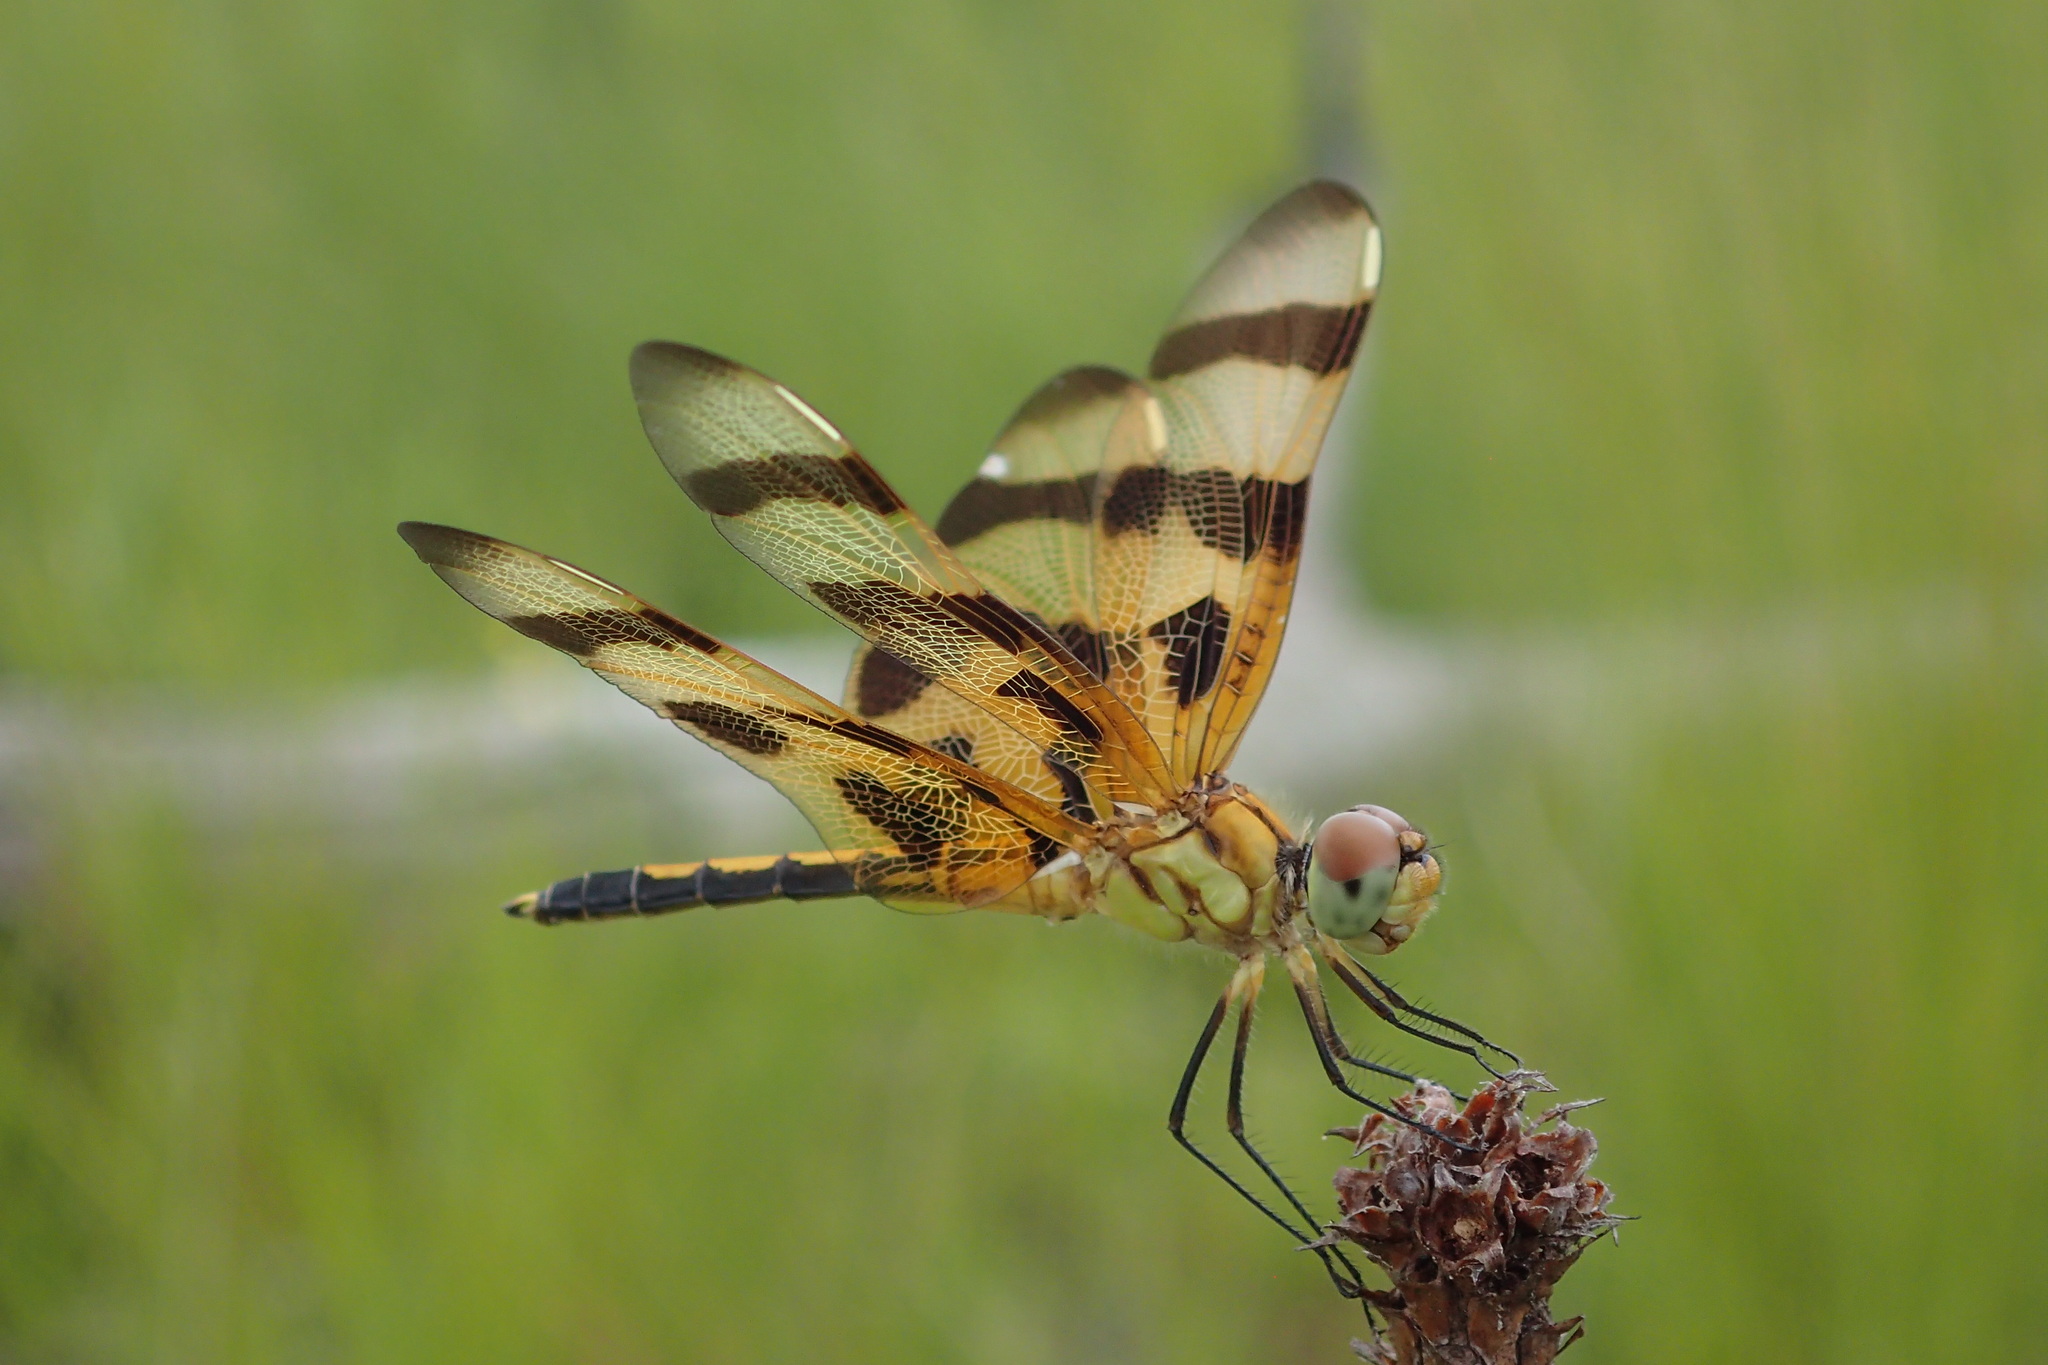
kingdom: Animalia
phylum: Arthropoda
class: Insecta
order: Odonata
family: Libellulidae
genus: Celithemis
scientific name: Celithemis eponina
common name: Halloween pennant
